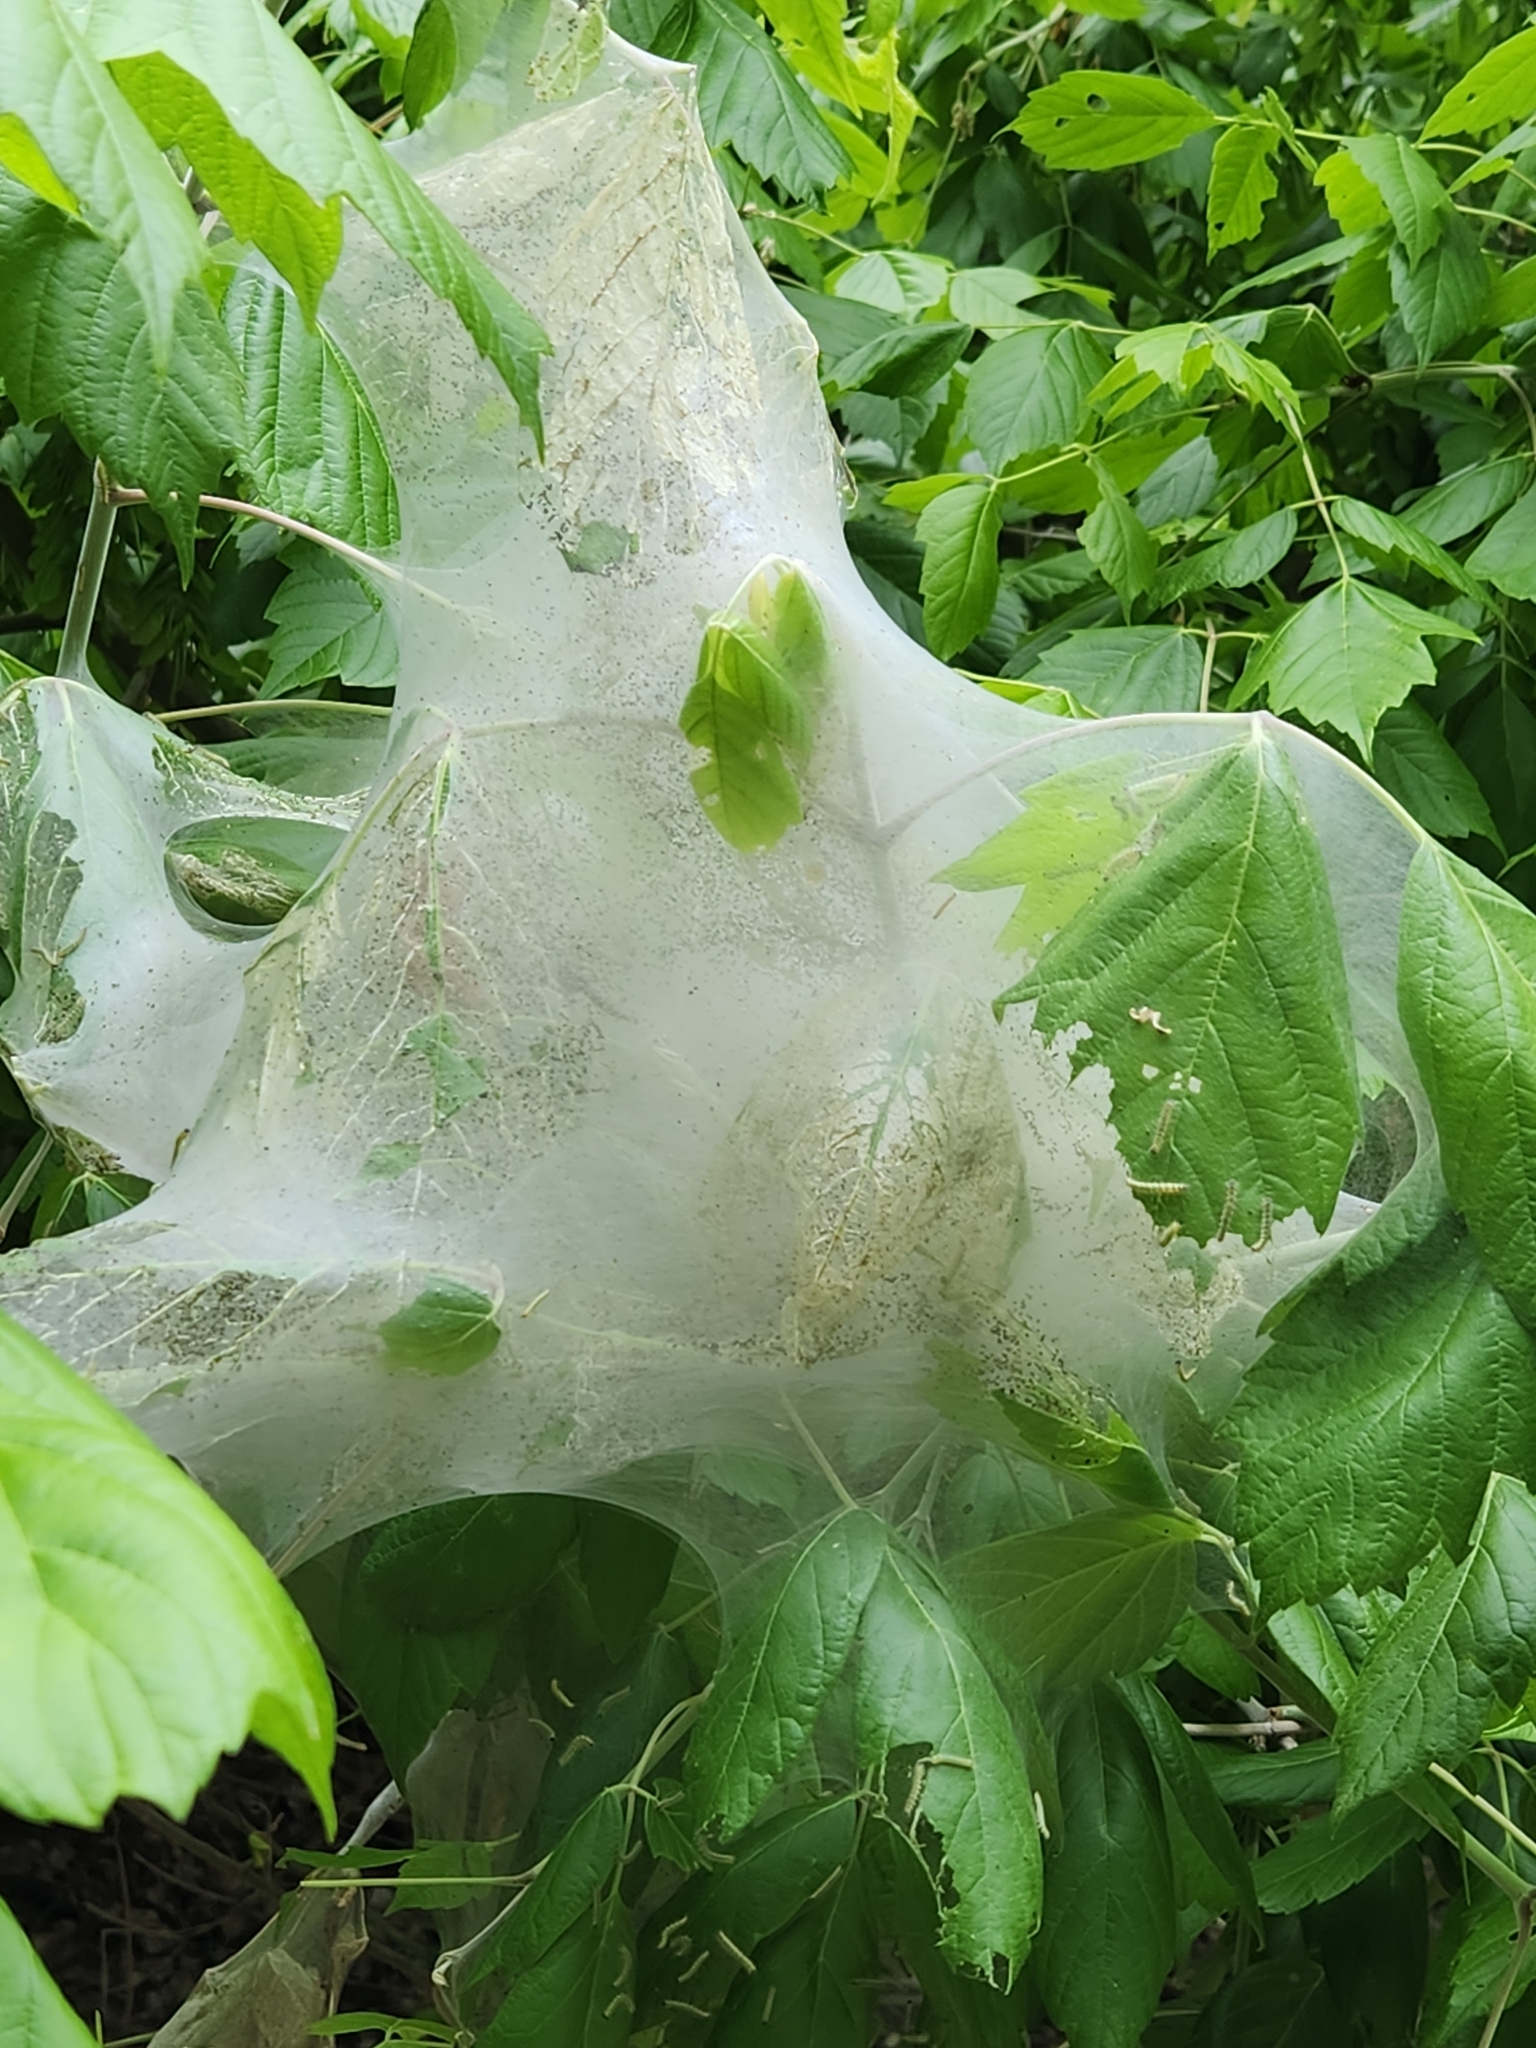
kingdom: Animalia
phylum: Arthropoda
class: Insecta
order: Lepidoptera
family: Erebidae
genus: Hyphantria
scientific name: Hyphantria cunea
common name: American white moth
